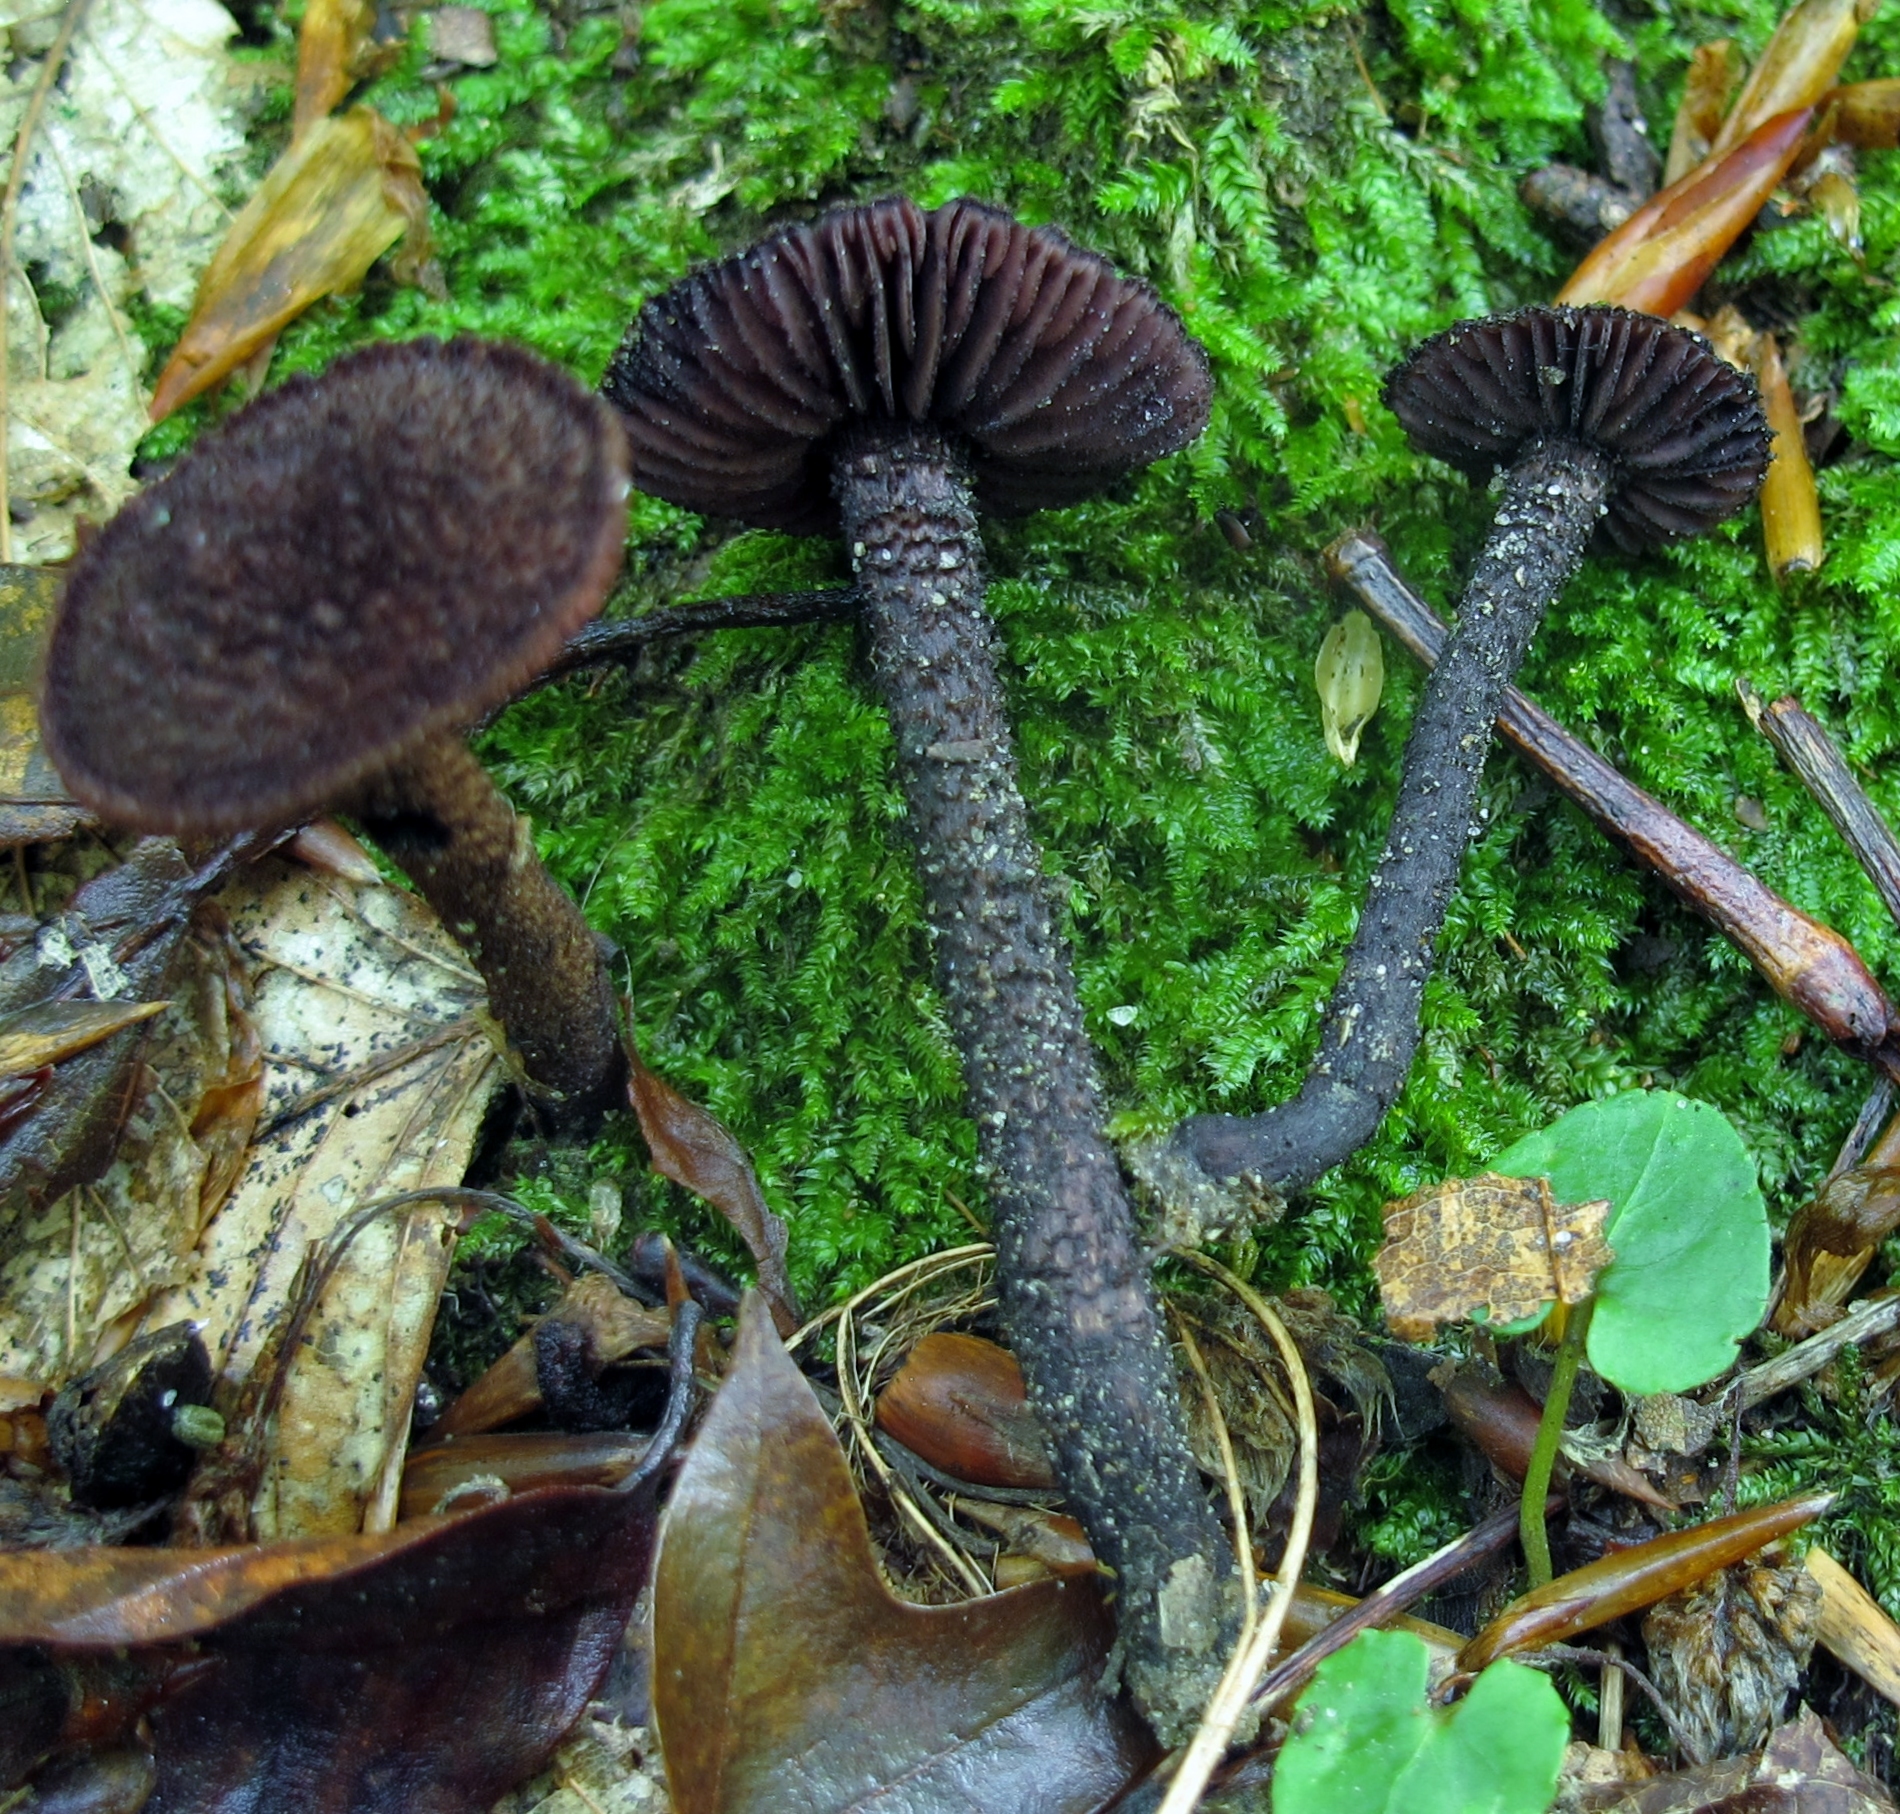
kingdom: Fungi
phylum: Basidiomycota
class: Agaricomycetes
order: Agaricales
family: Inocybaceae
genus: Inocybe
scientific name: Inocybe tahquamenonensis
